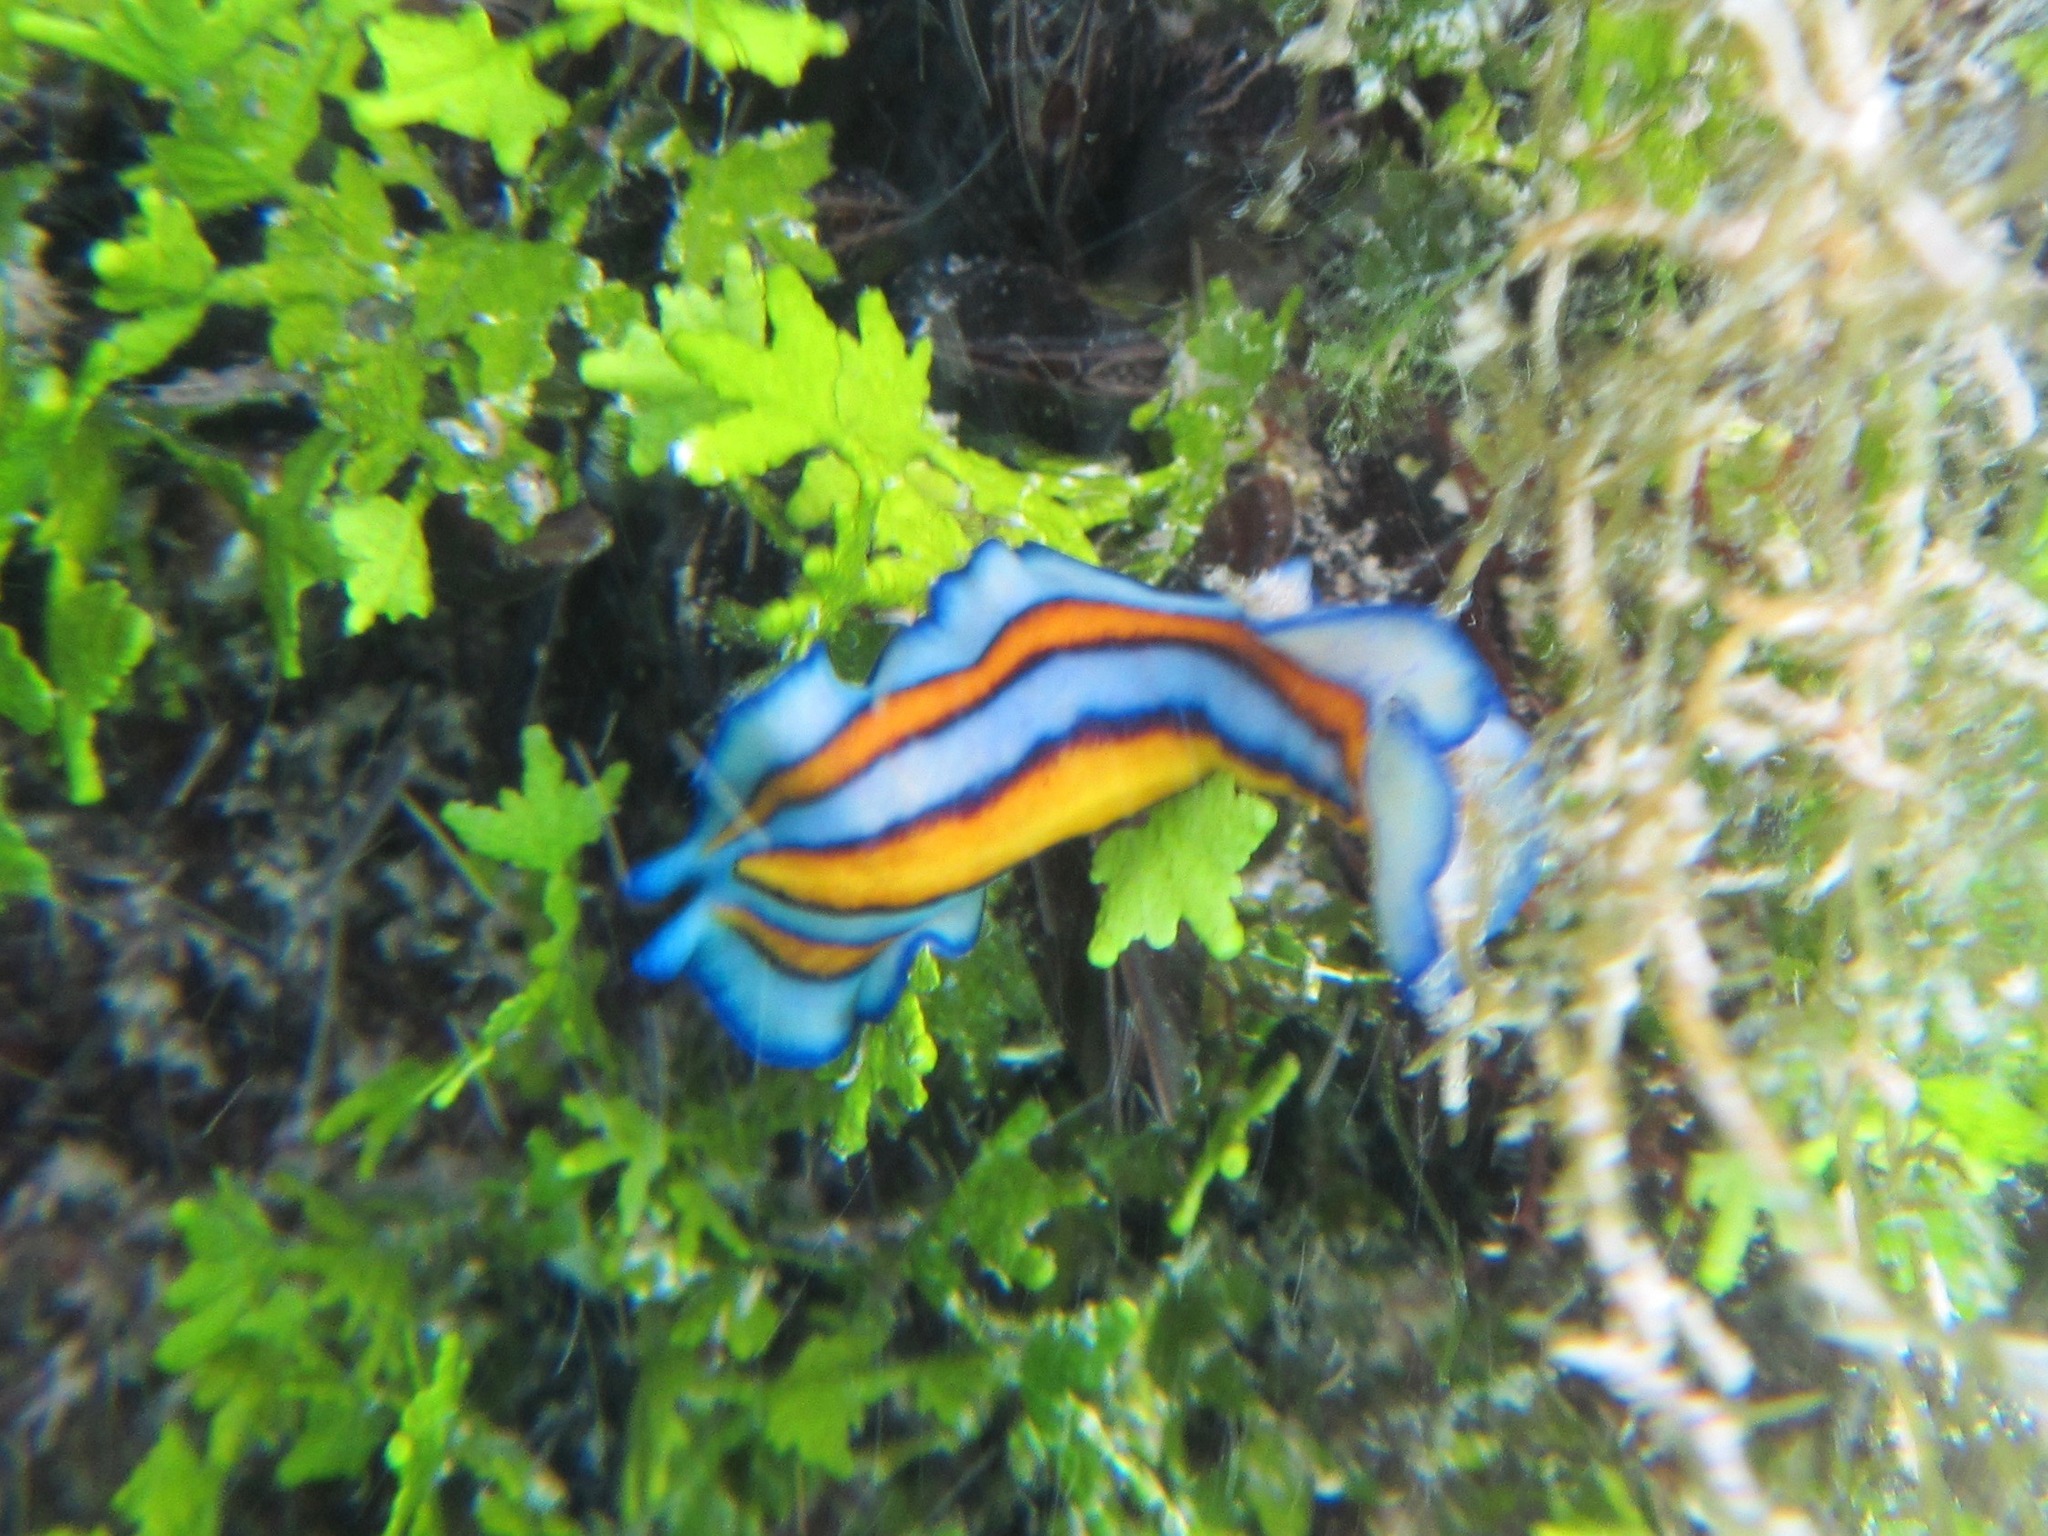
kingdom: Animalia
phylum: Platyhelminthes
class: Turbellaria
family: Pseudocerotidae
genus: Pseudoceros
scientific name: Pseudoceros tristriatus
